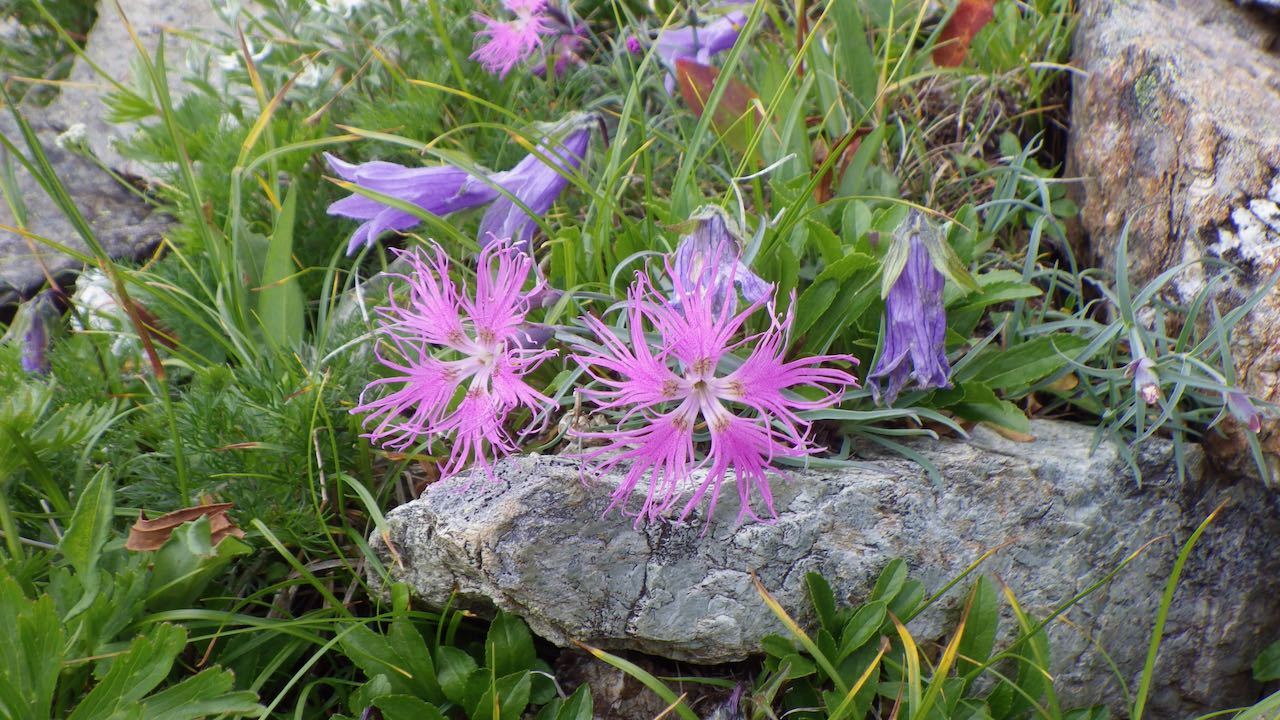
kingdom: Plantae
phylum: Tracheophyta
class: Magnoliopsida
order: Caryophyllales
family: Caryophyllaceae
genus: Dianthus
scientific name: Dianthus superbus
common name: Fringed pink
